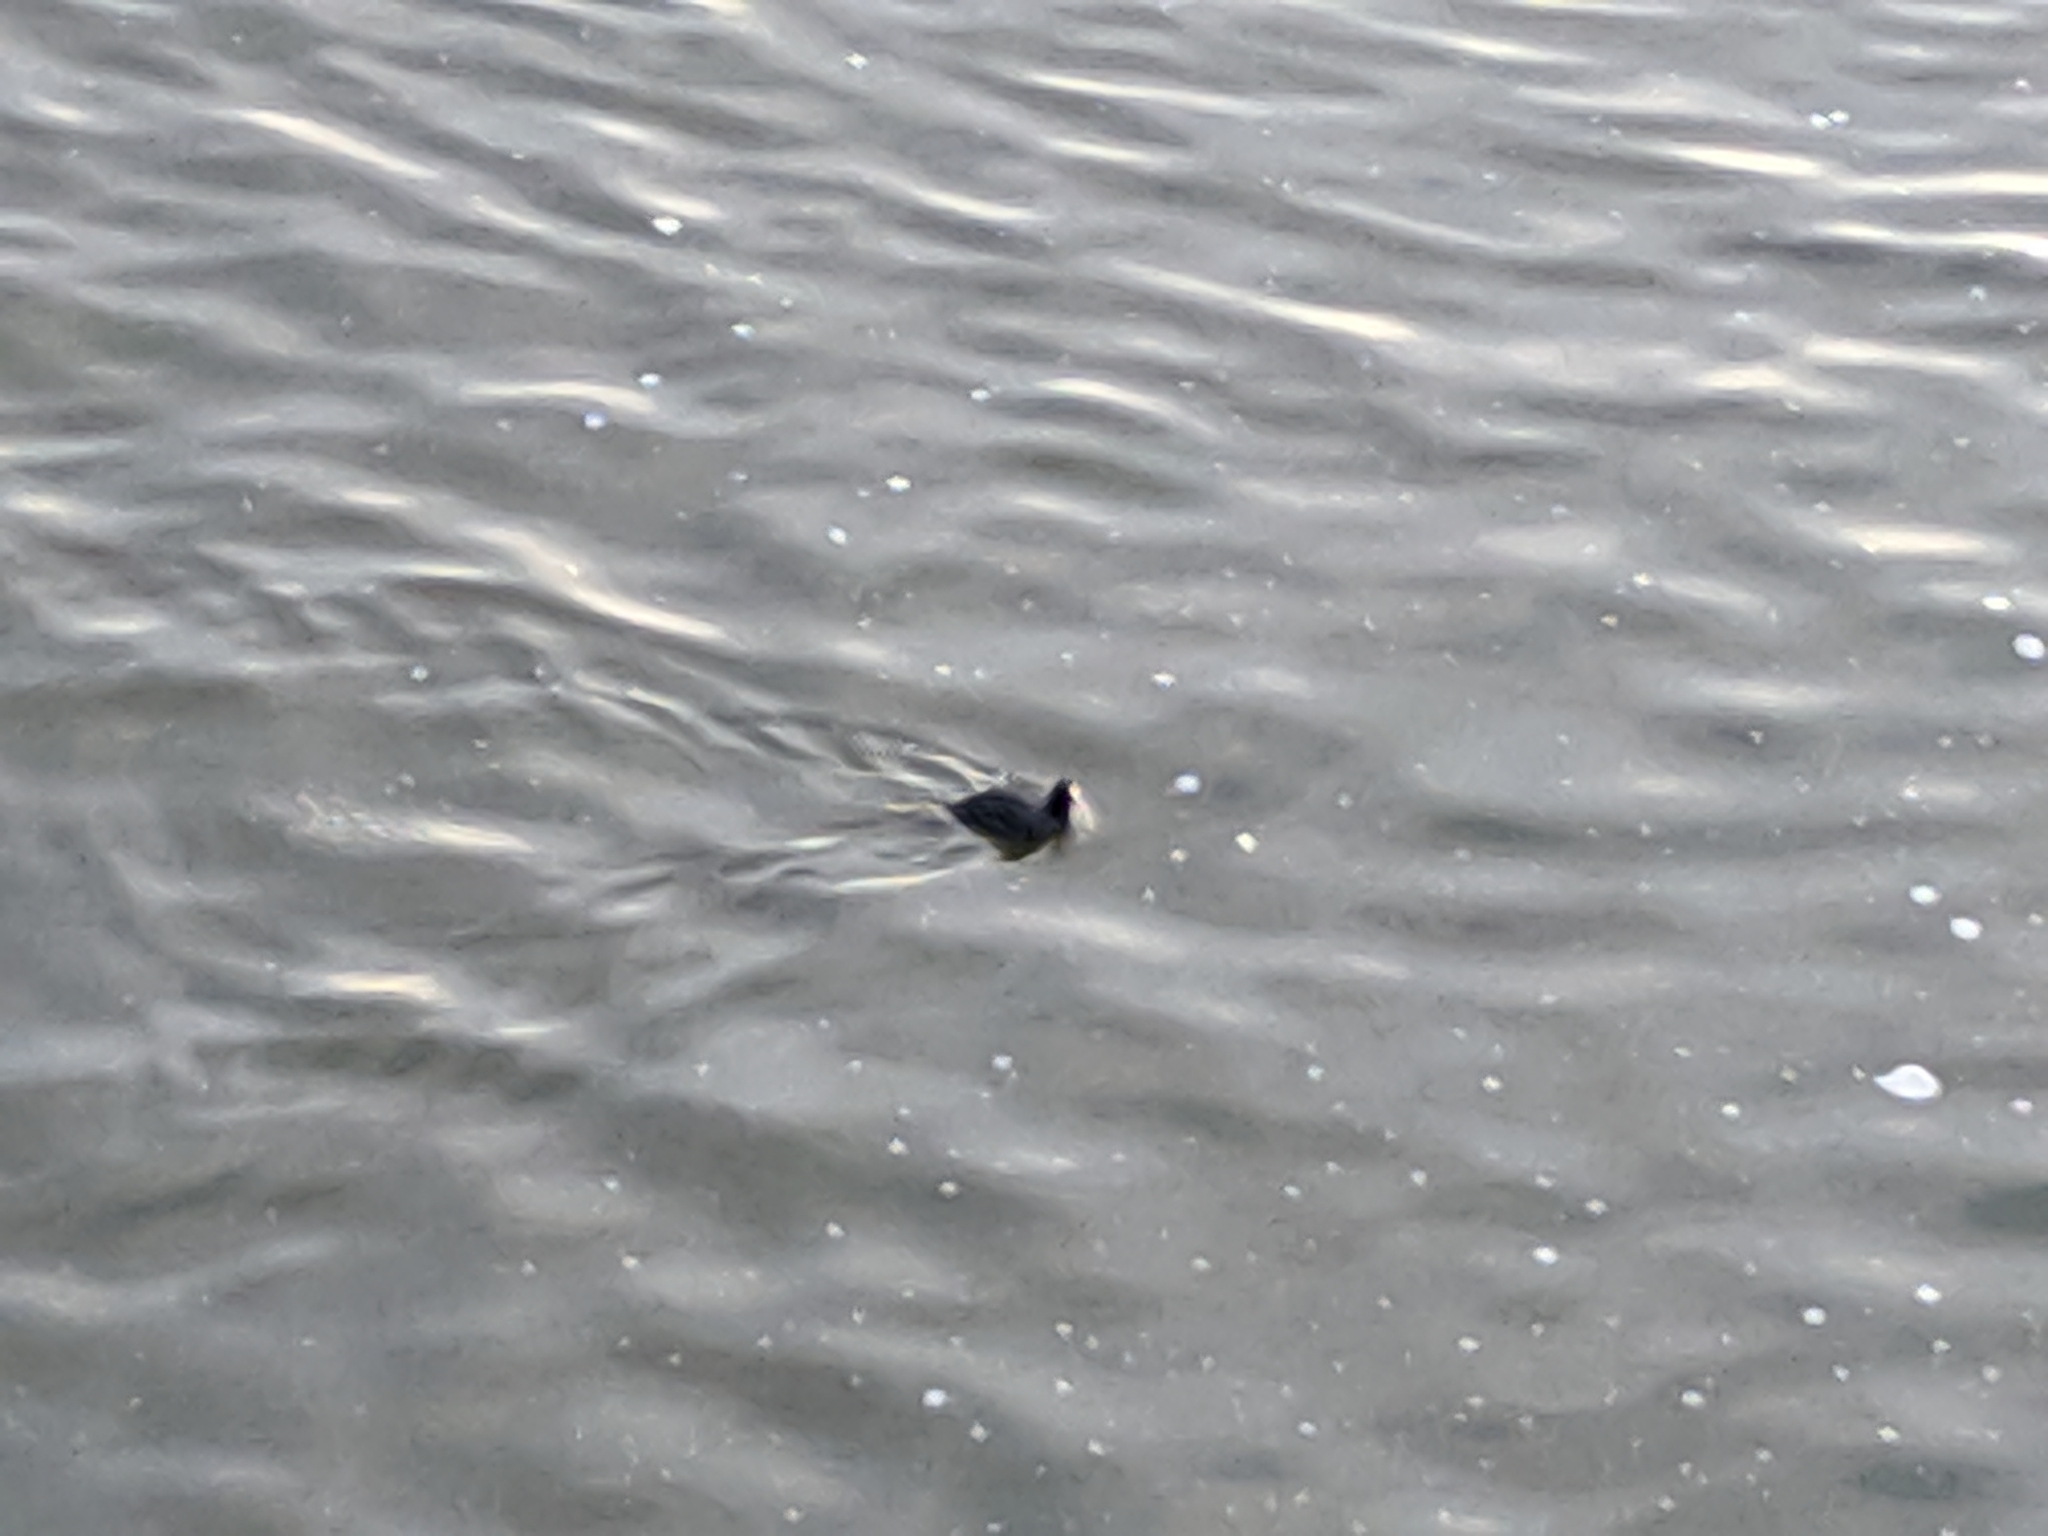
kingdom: Animalia
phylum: Chordata
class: Aves
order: Gruiformes
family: Rallidae
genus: Fulica
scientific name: Fulica atra
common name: Eurasian coot
